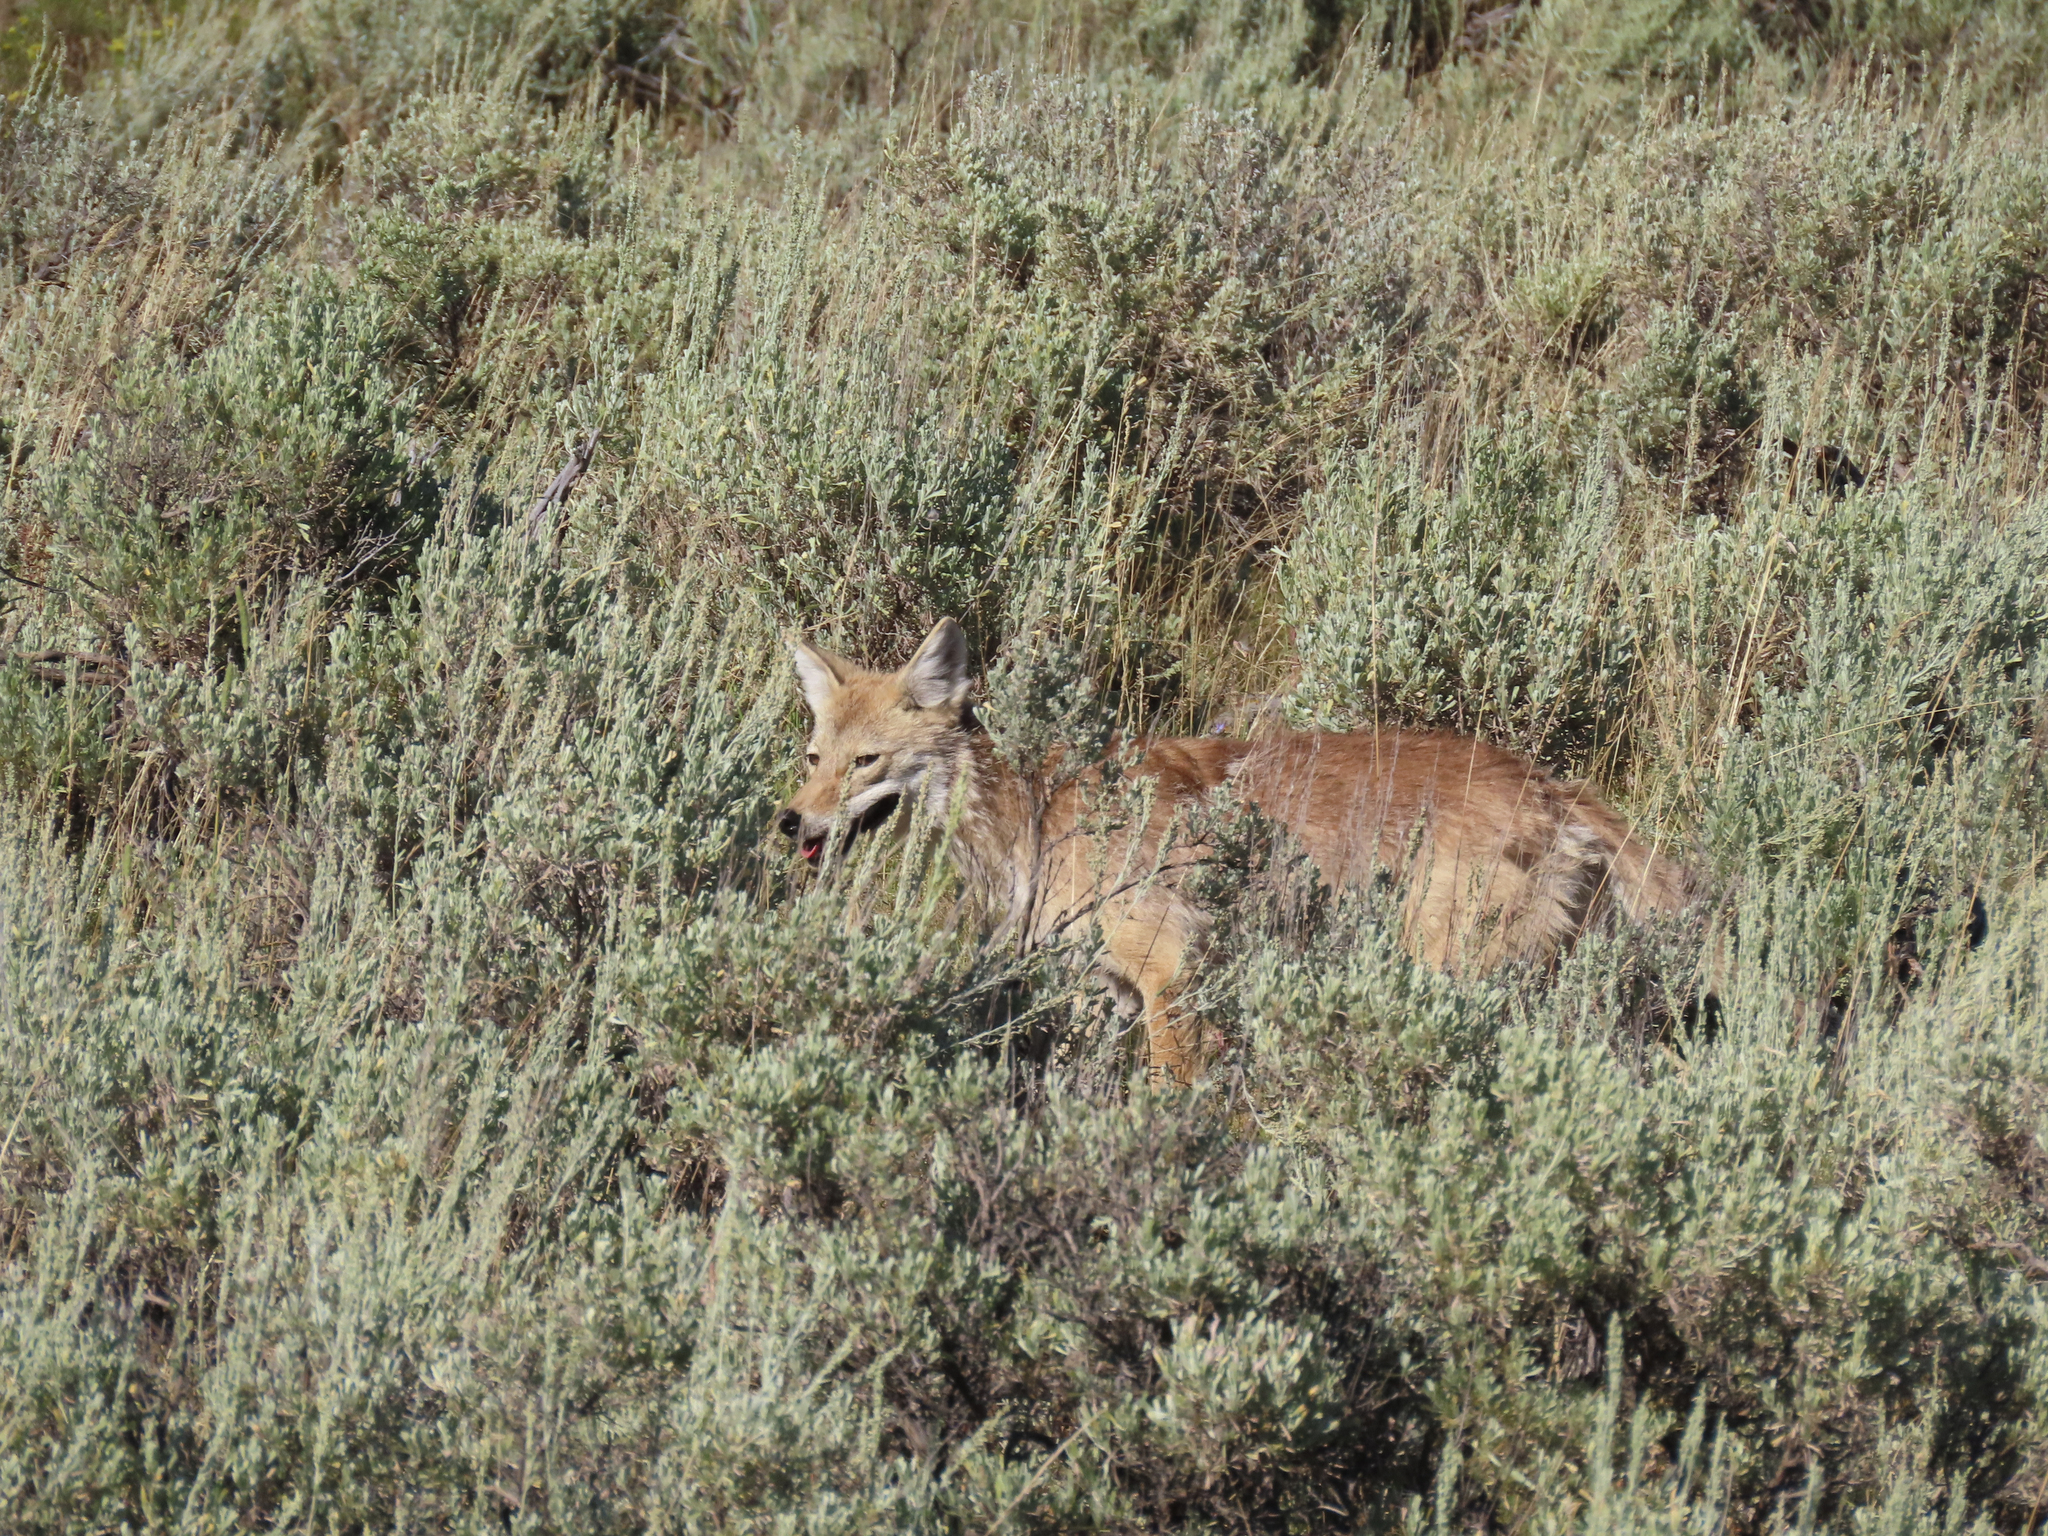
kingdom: Animalia
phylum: Chordata
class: Mammalia
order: Carnivora
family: Canidae
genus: Canis
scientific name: Canis latrans
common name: Coyote
